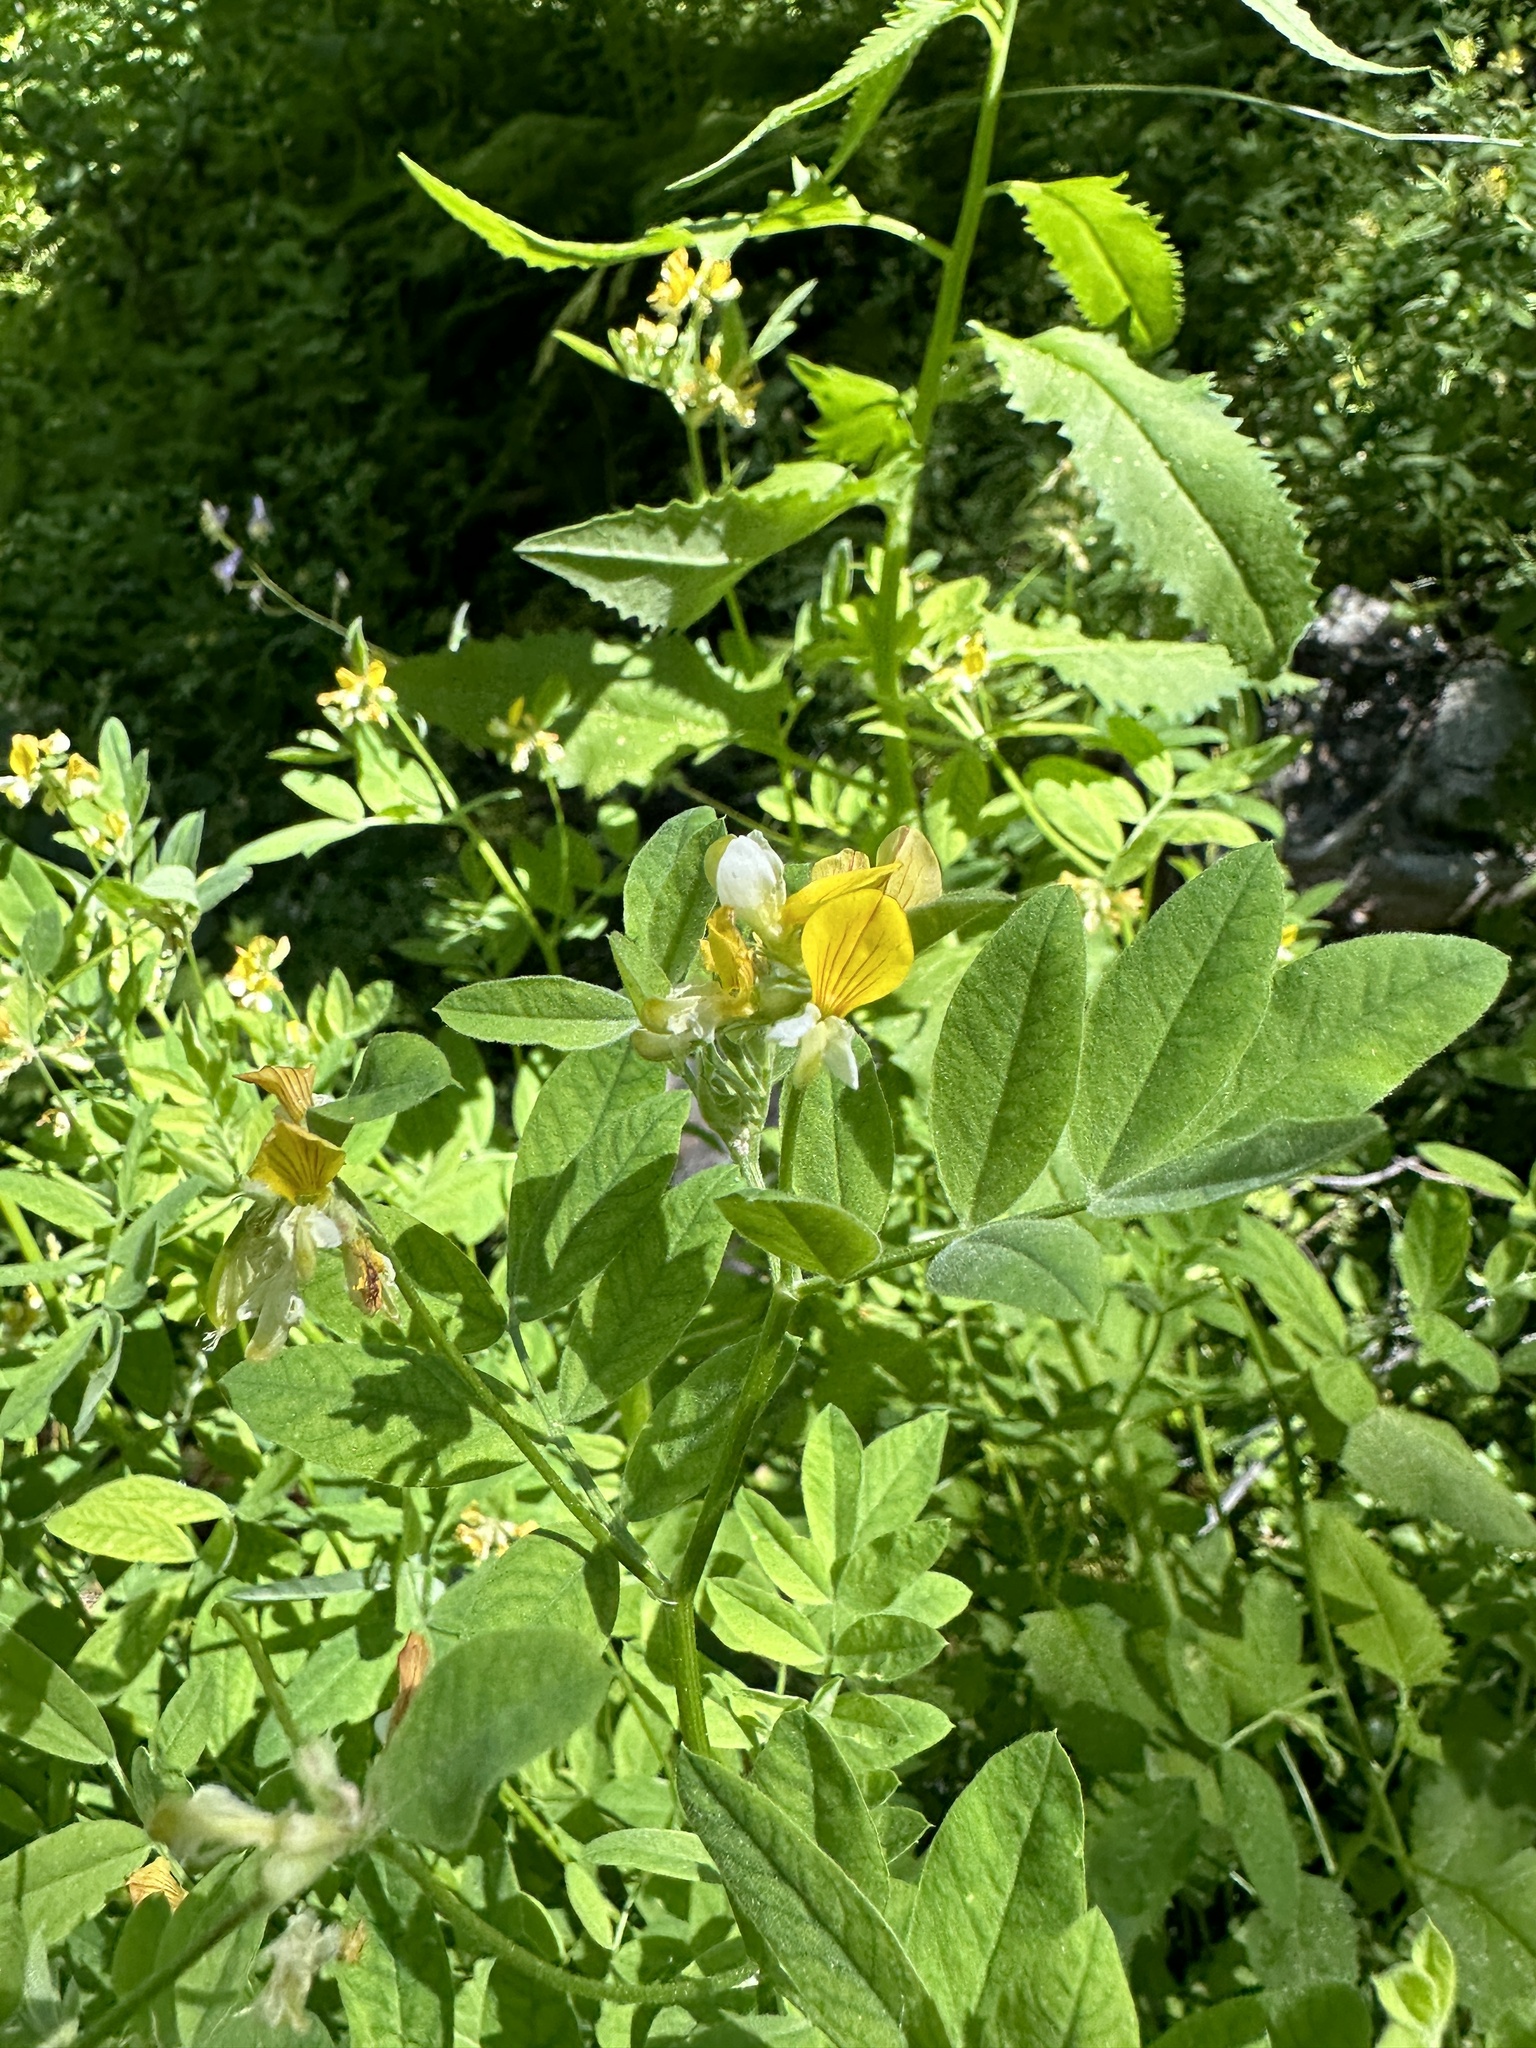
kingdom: Plantae
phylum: Tracheophyta
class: Magnoliopsida
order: Fabales
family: Fabaceae
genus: Hosackia
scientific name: Hosackia oblongifolia
